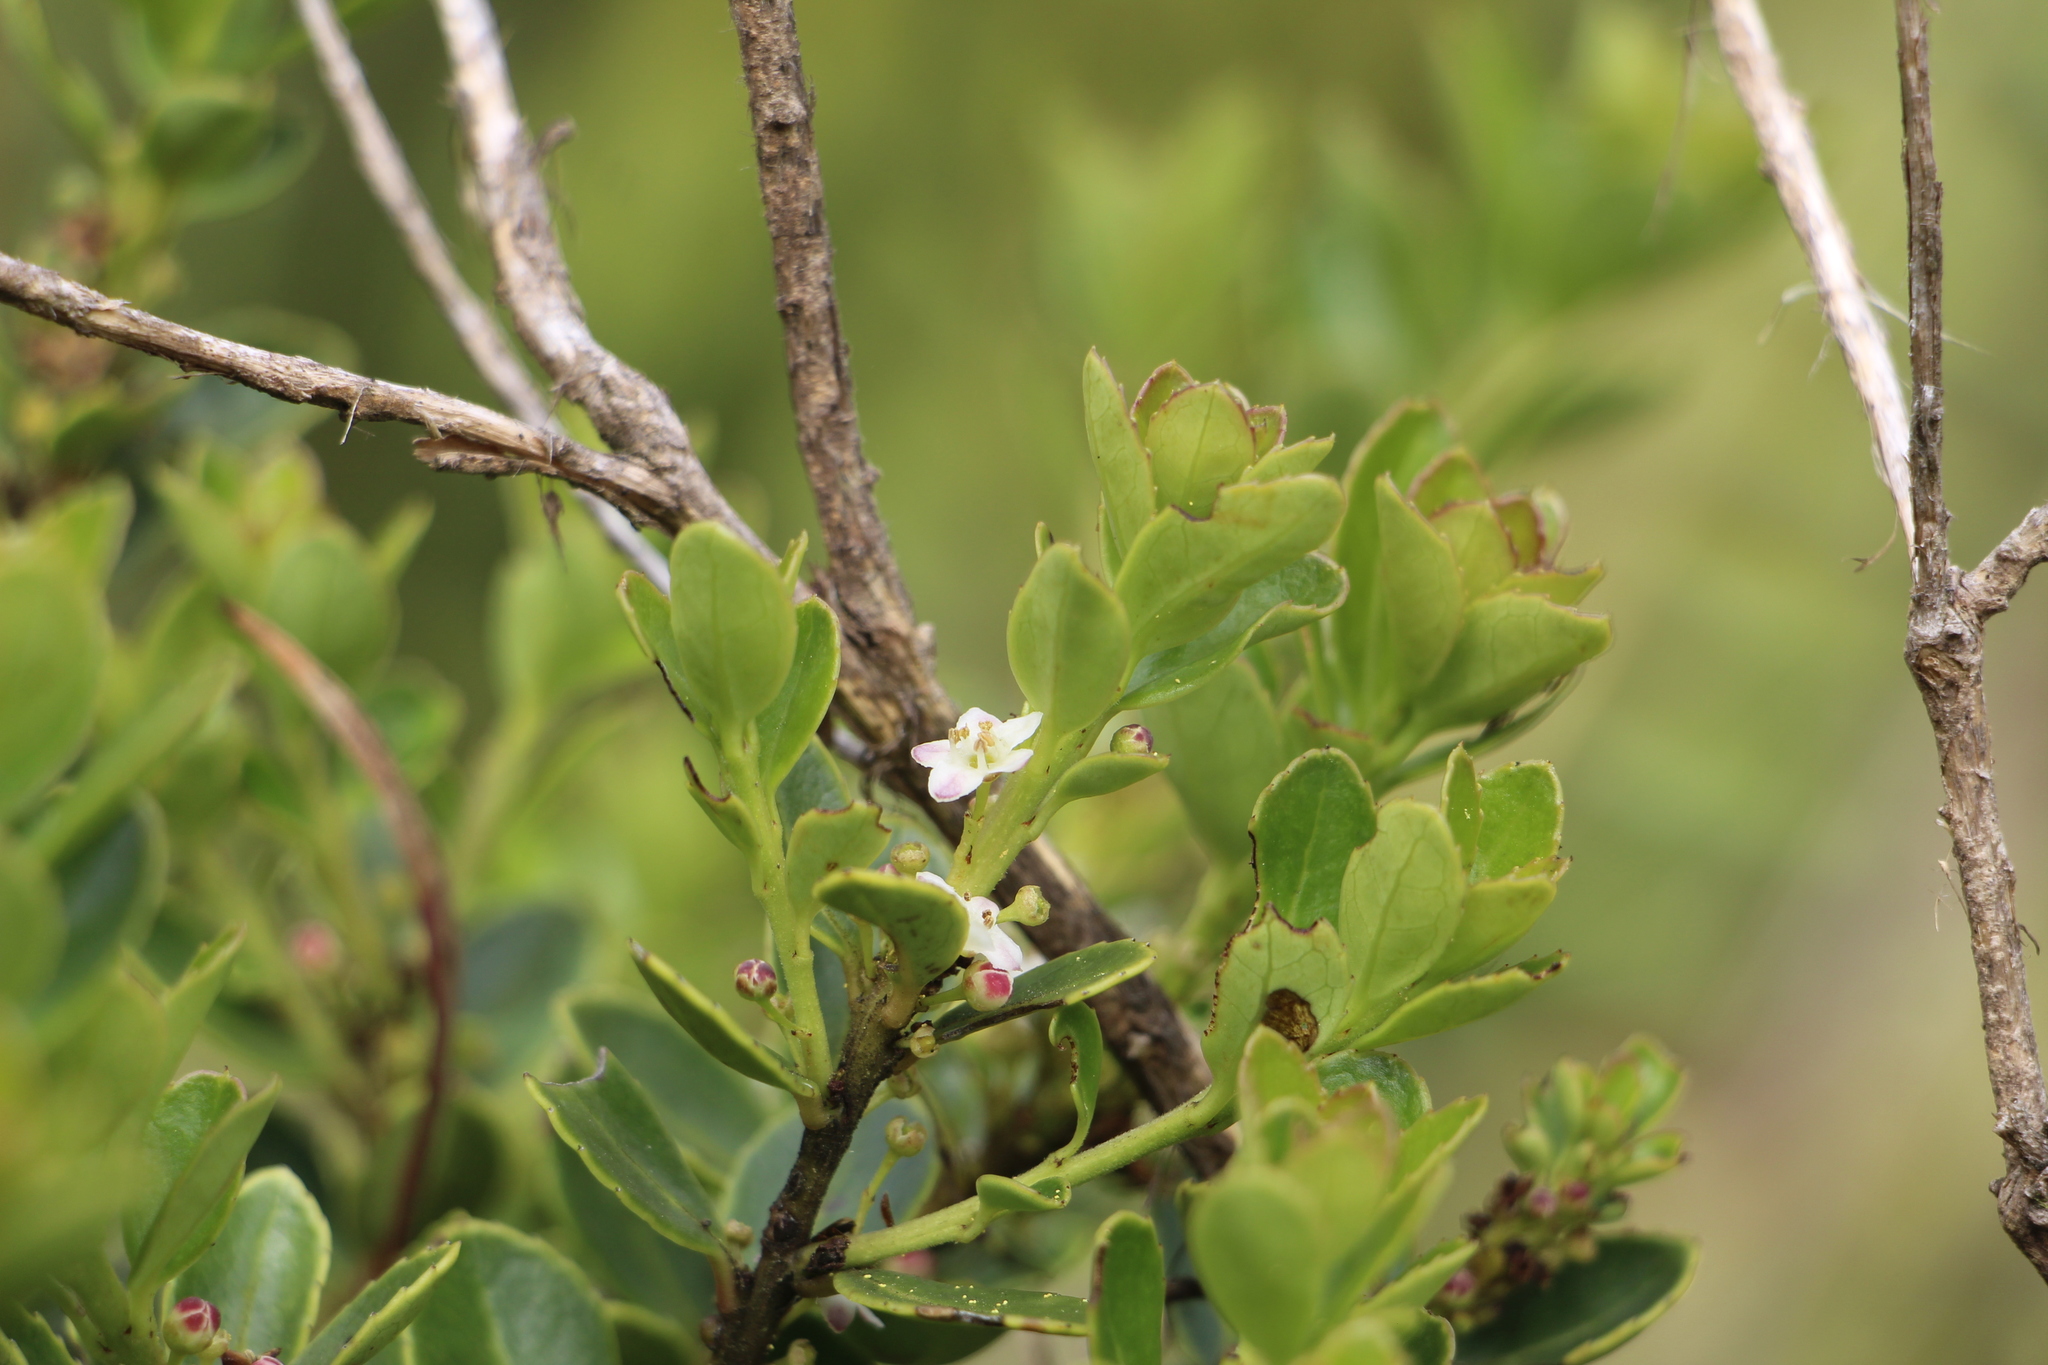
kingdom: Plantae
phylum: Tracheophyta
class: Magnoliopsida
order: Aquifoliales
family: Aquifoliaceae
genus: Ilex
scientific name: Ilex microphylla
